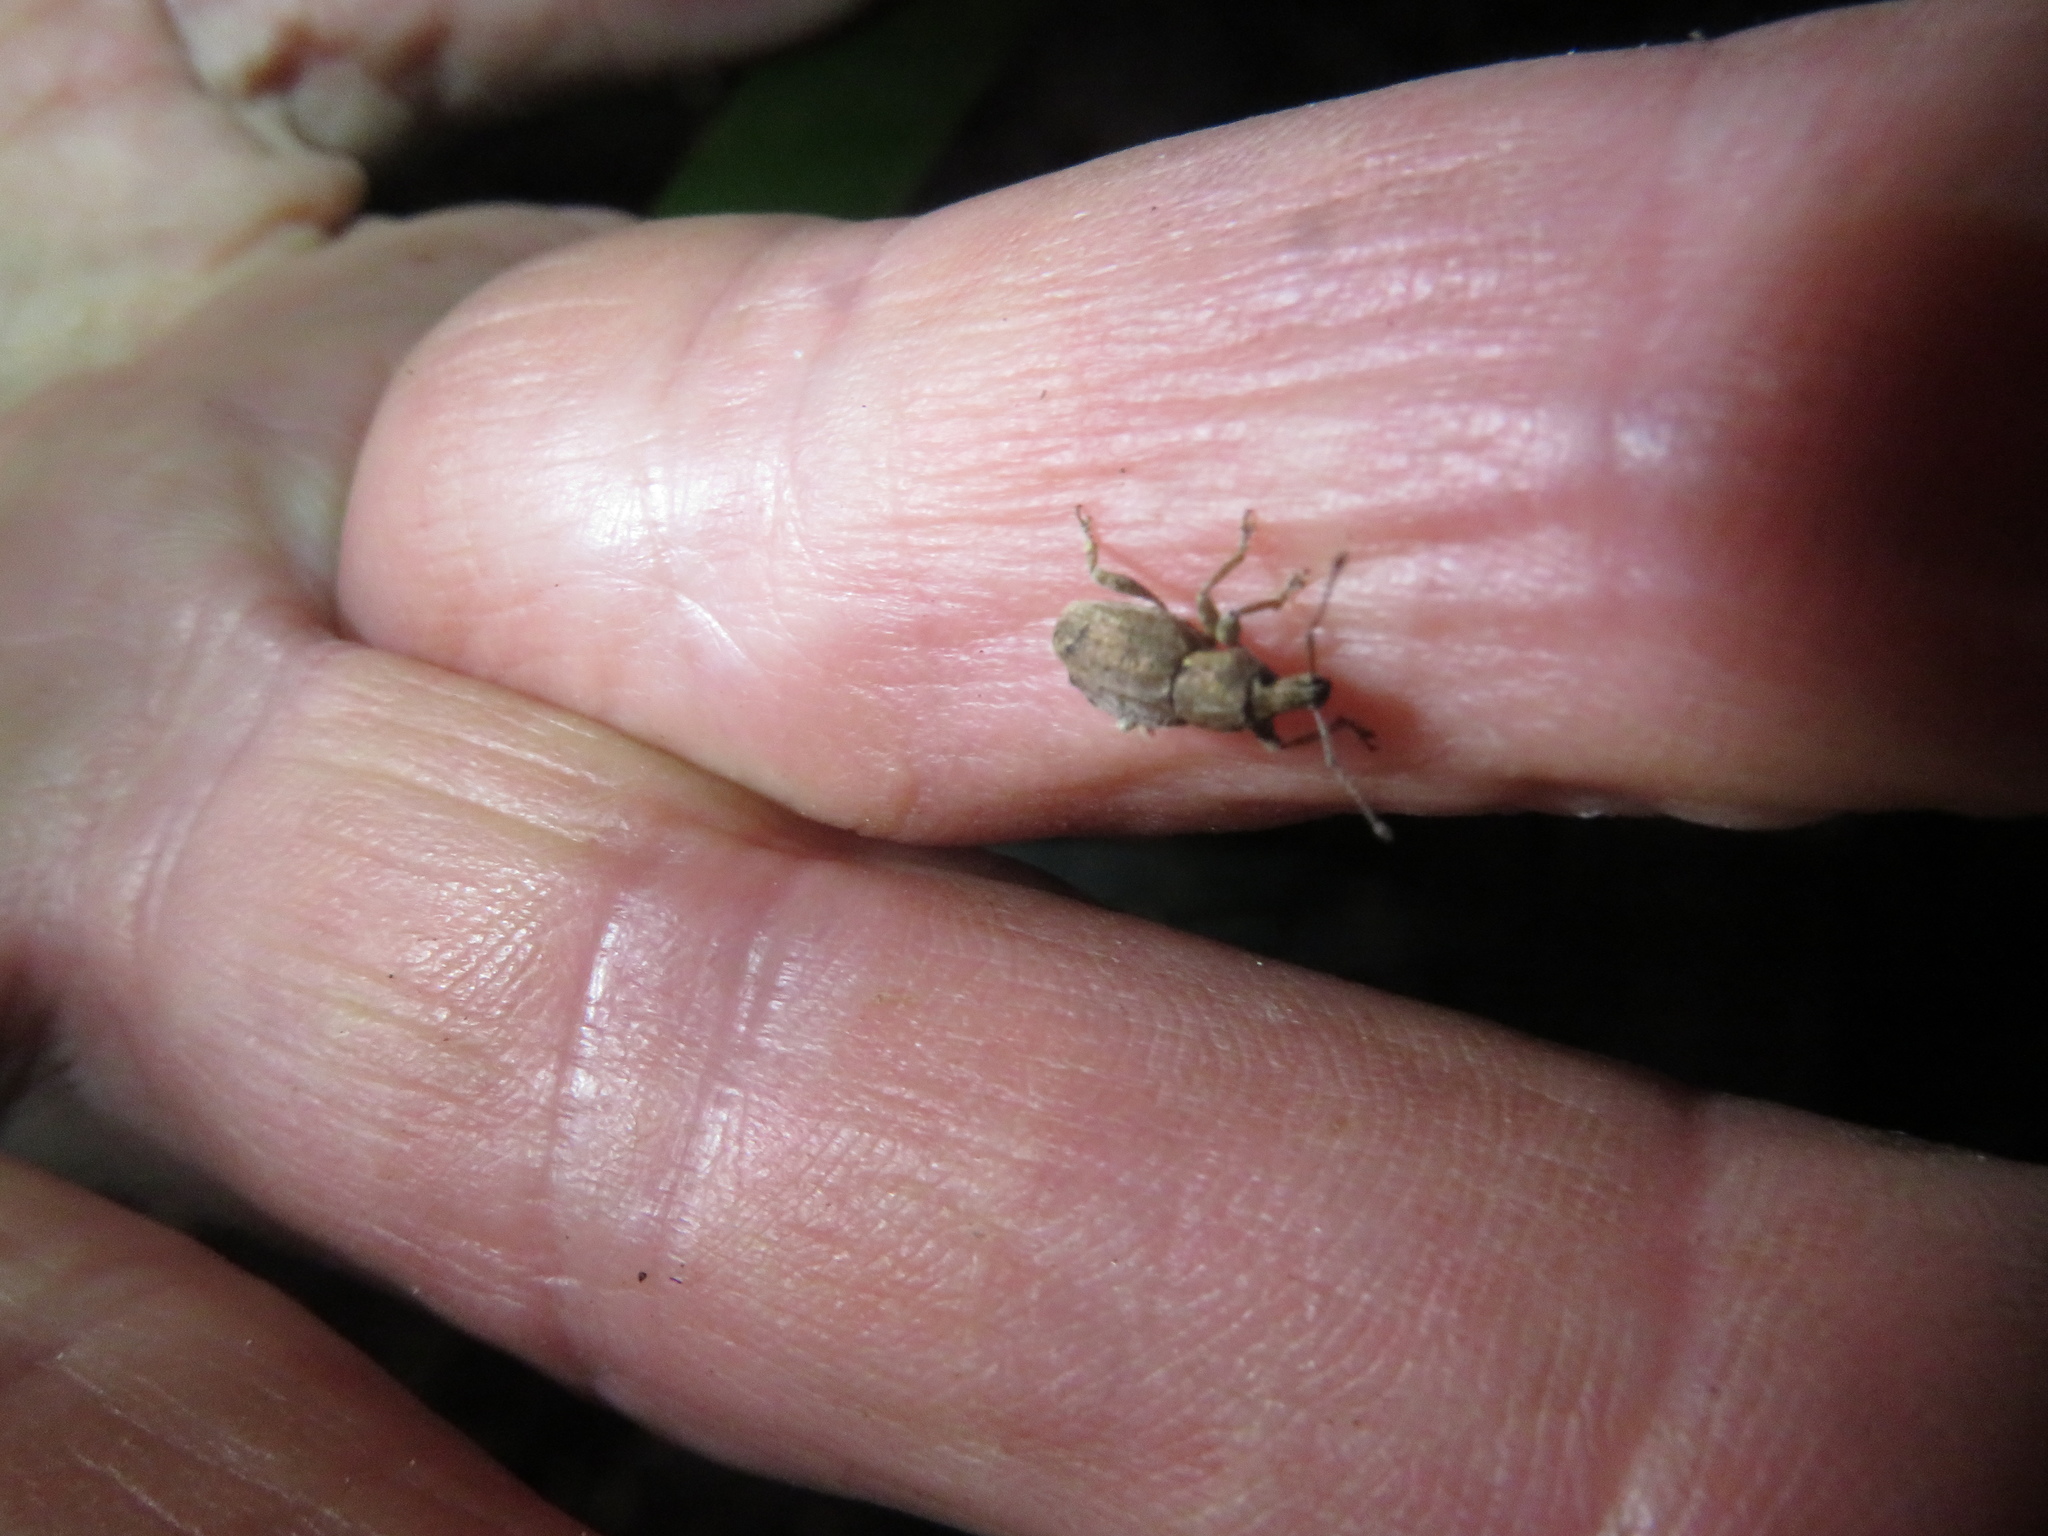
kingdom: Animalia
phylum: Arthropoda
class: Insecta
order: Coleoptera
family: Curculionidae
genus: Chalepistes
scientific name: Chalepistes compressus
